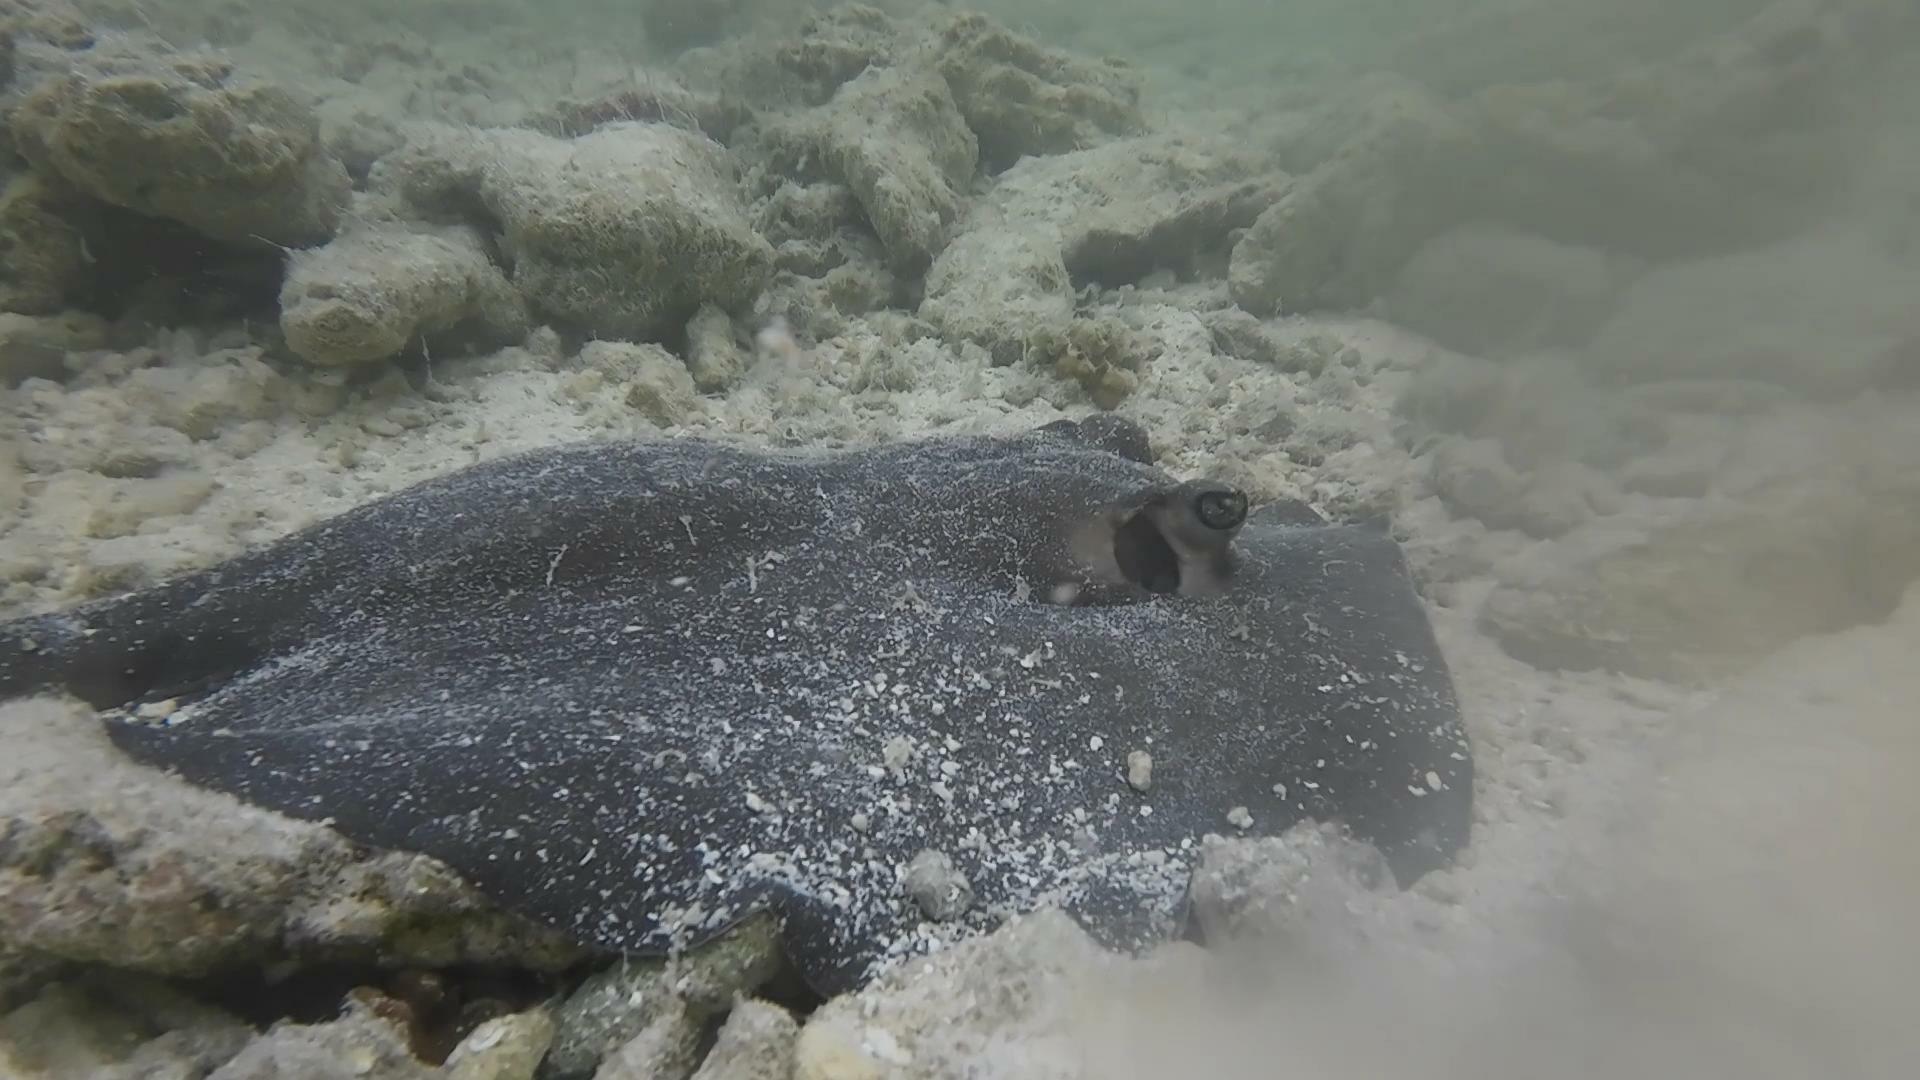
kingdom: Animalia
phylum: Chordata
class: Elasmobranchii
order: Myliobatiformes
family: Dasyatidae
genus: Urogymnus
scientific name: Urogymnus granulatus
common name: Mangrove whipray
